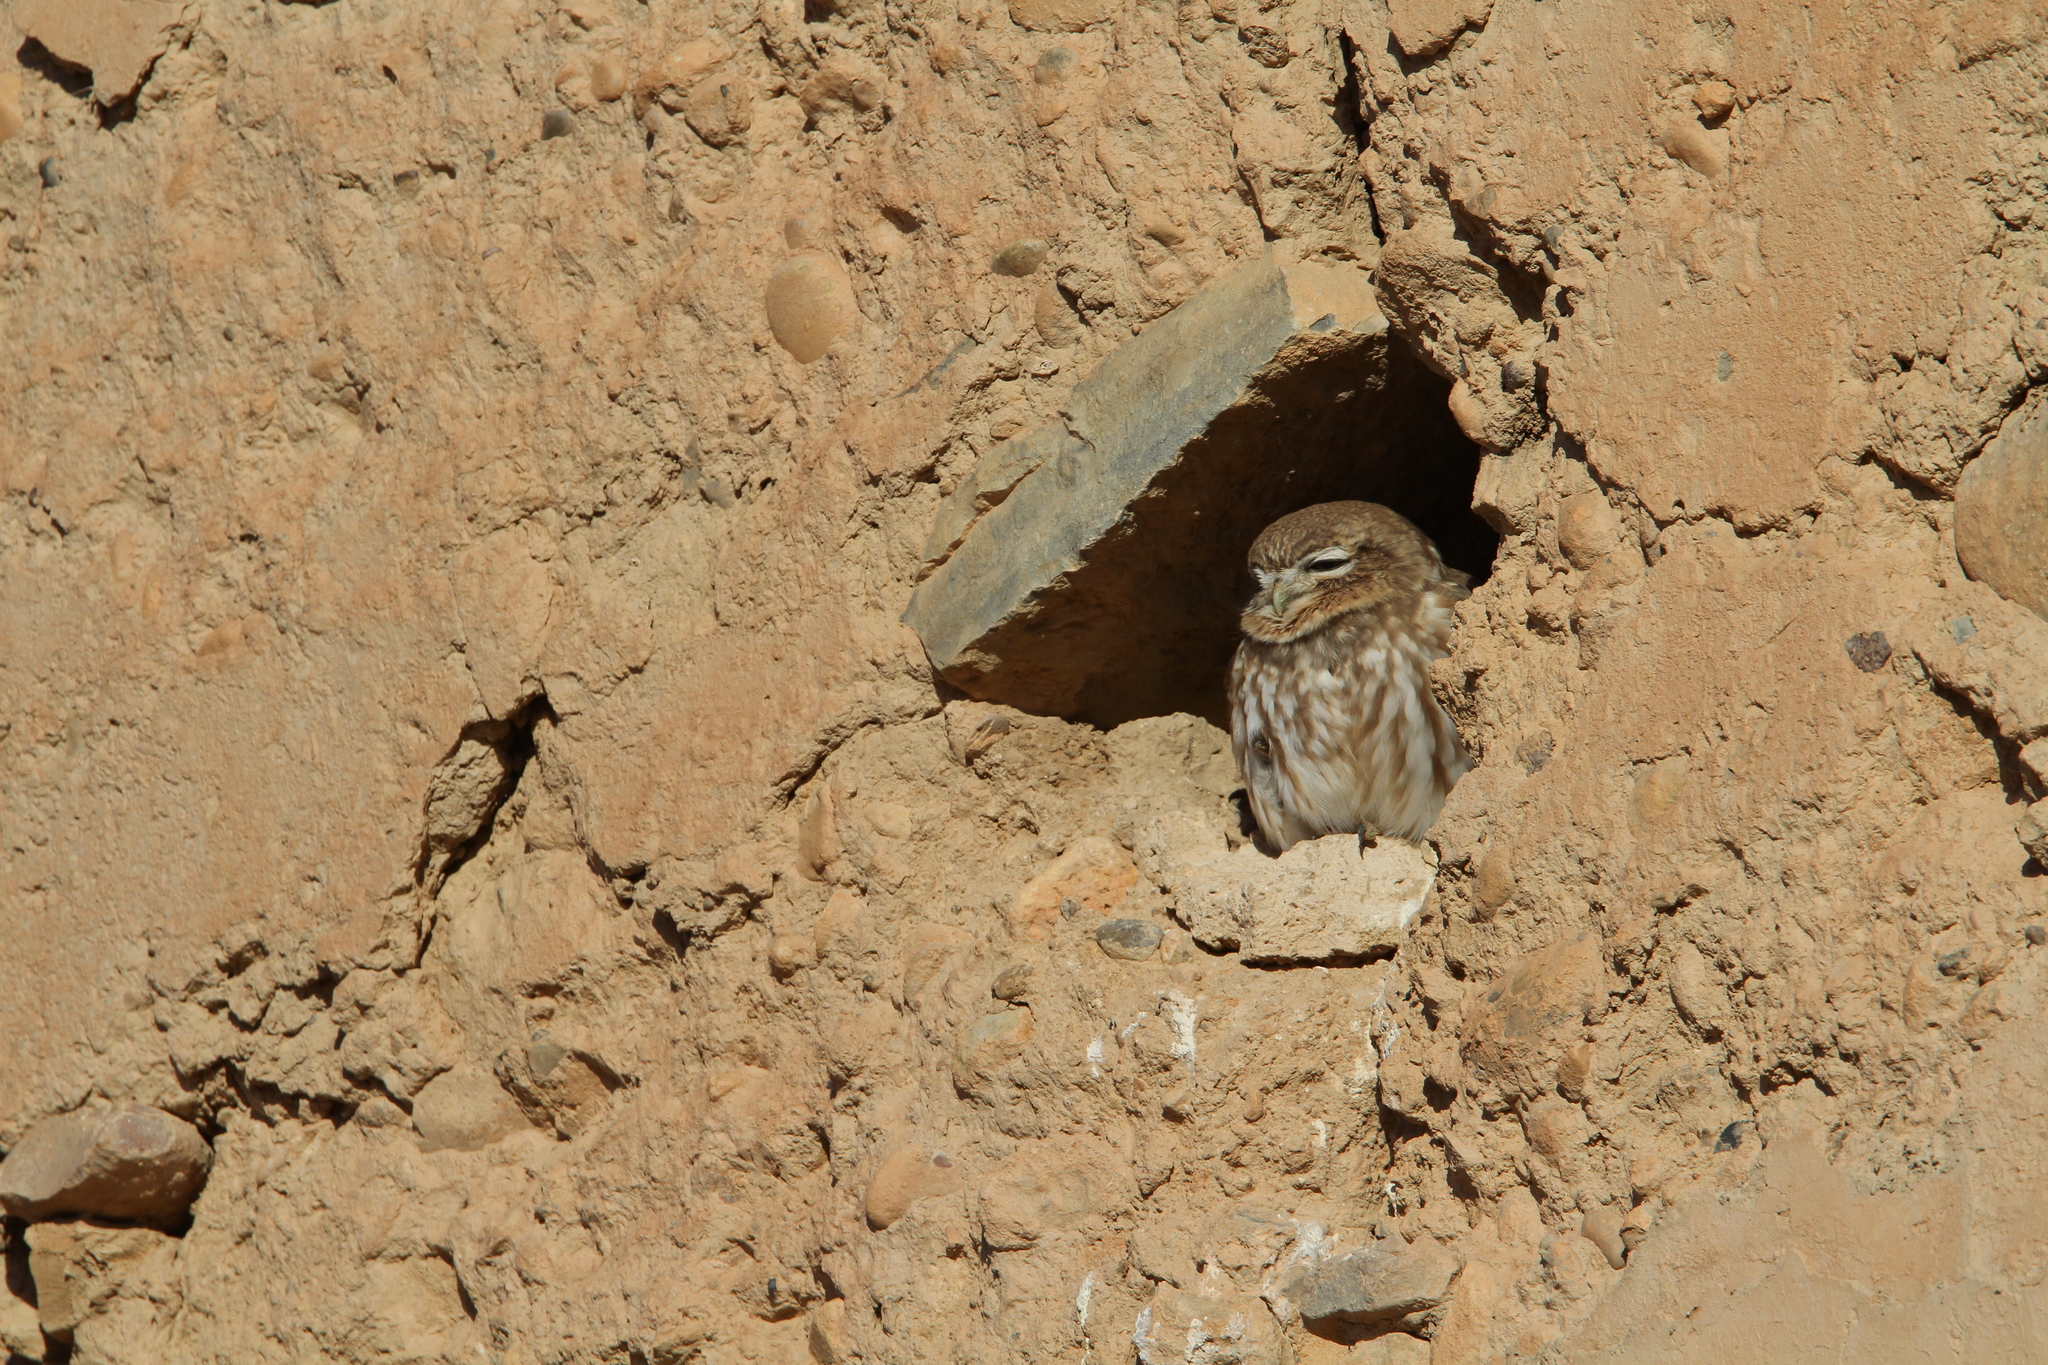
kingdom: Animalia
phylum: Chordata
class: Aves
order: Strigiformes
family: Strigidae
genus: Athene
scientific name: Athene noctua
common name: Little owl
